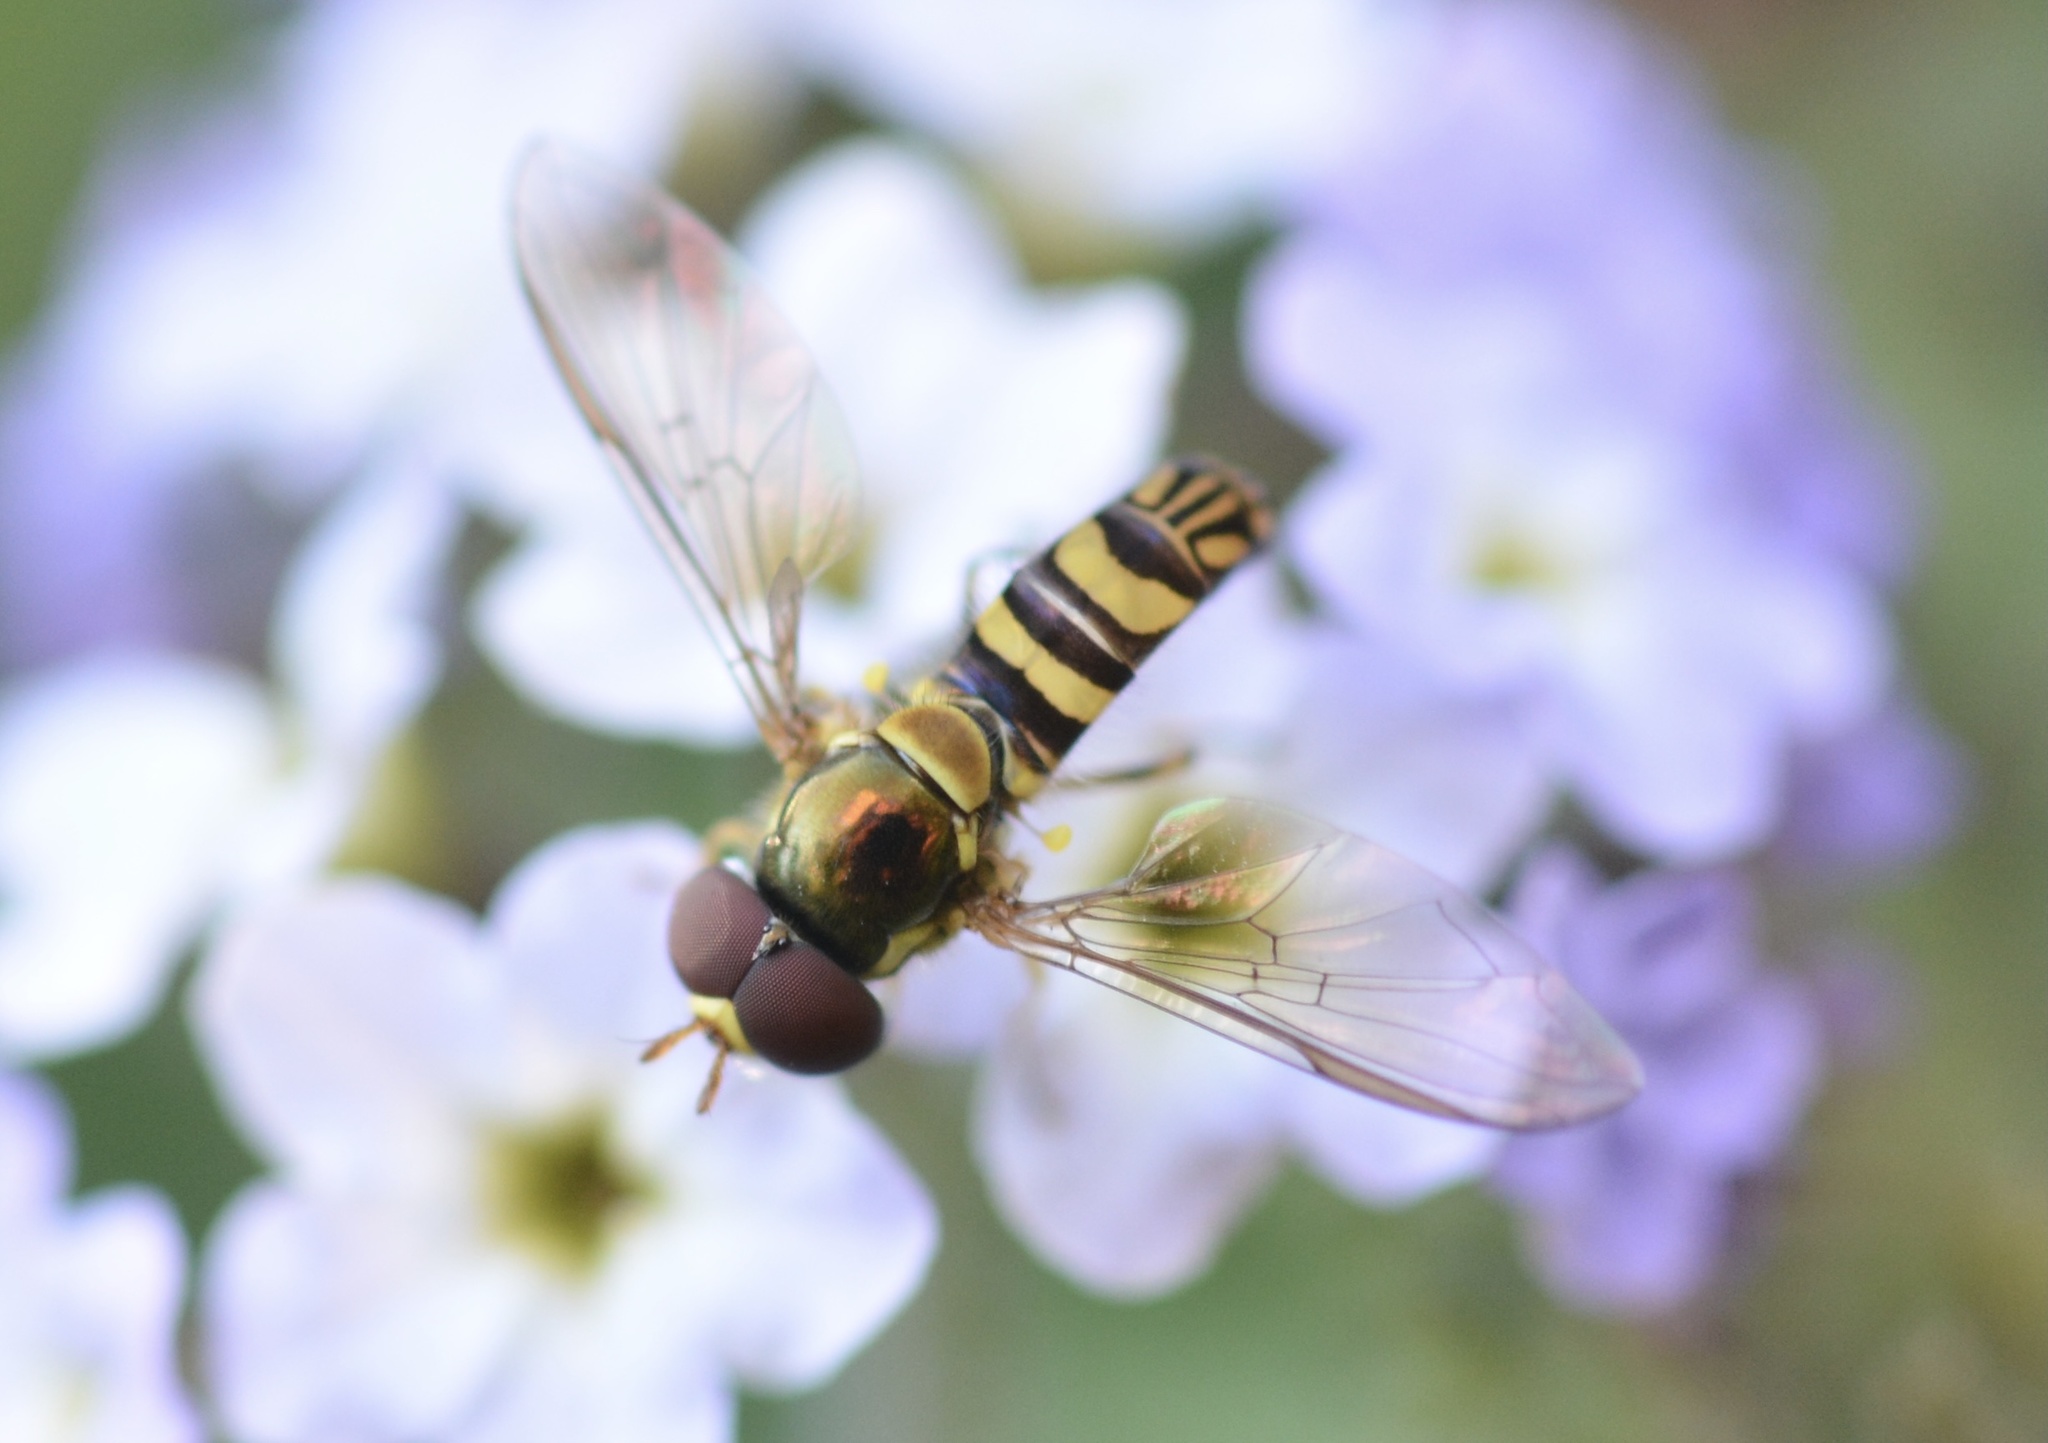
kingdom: Animalia
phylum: Arthropoda
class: Insecta
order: Diptera
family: Syrphidae
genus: Allograpta
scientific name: Allograpta obliqua
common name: Common oblique syrphid
